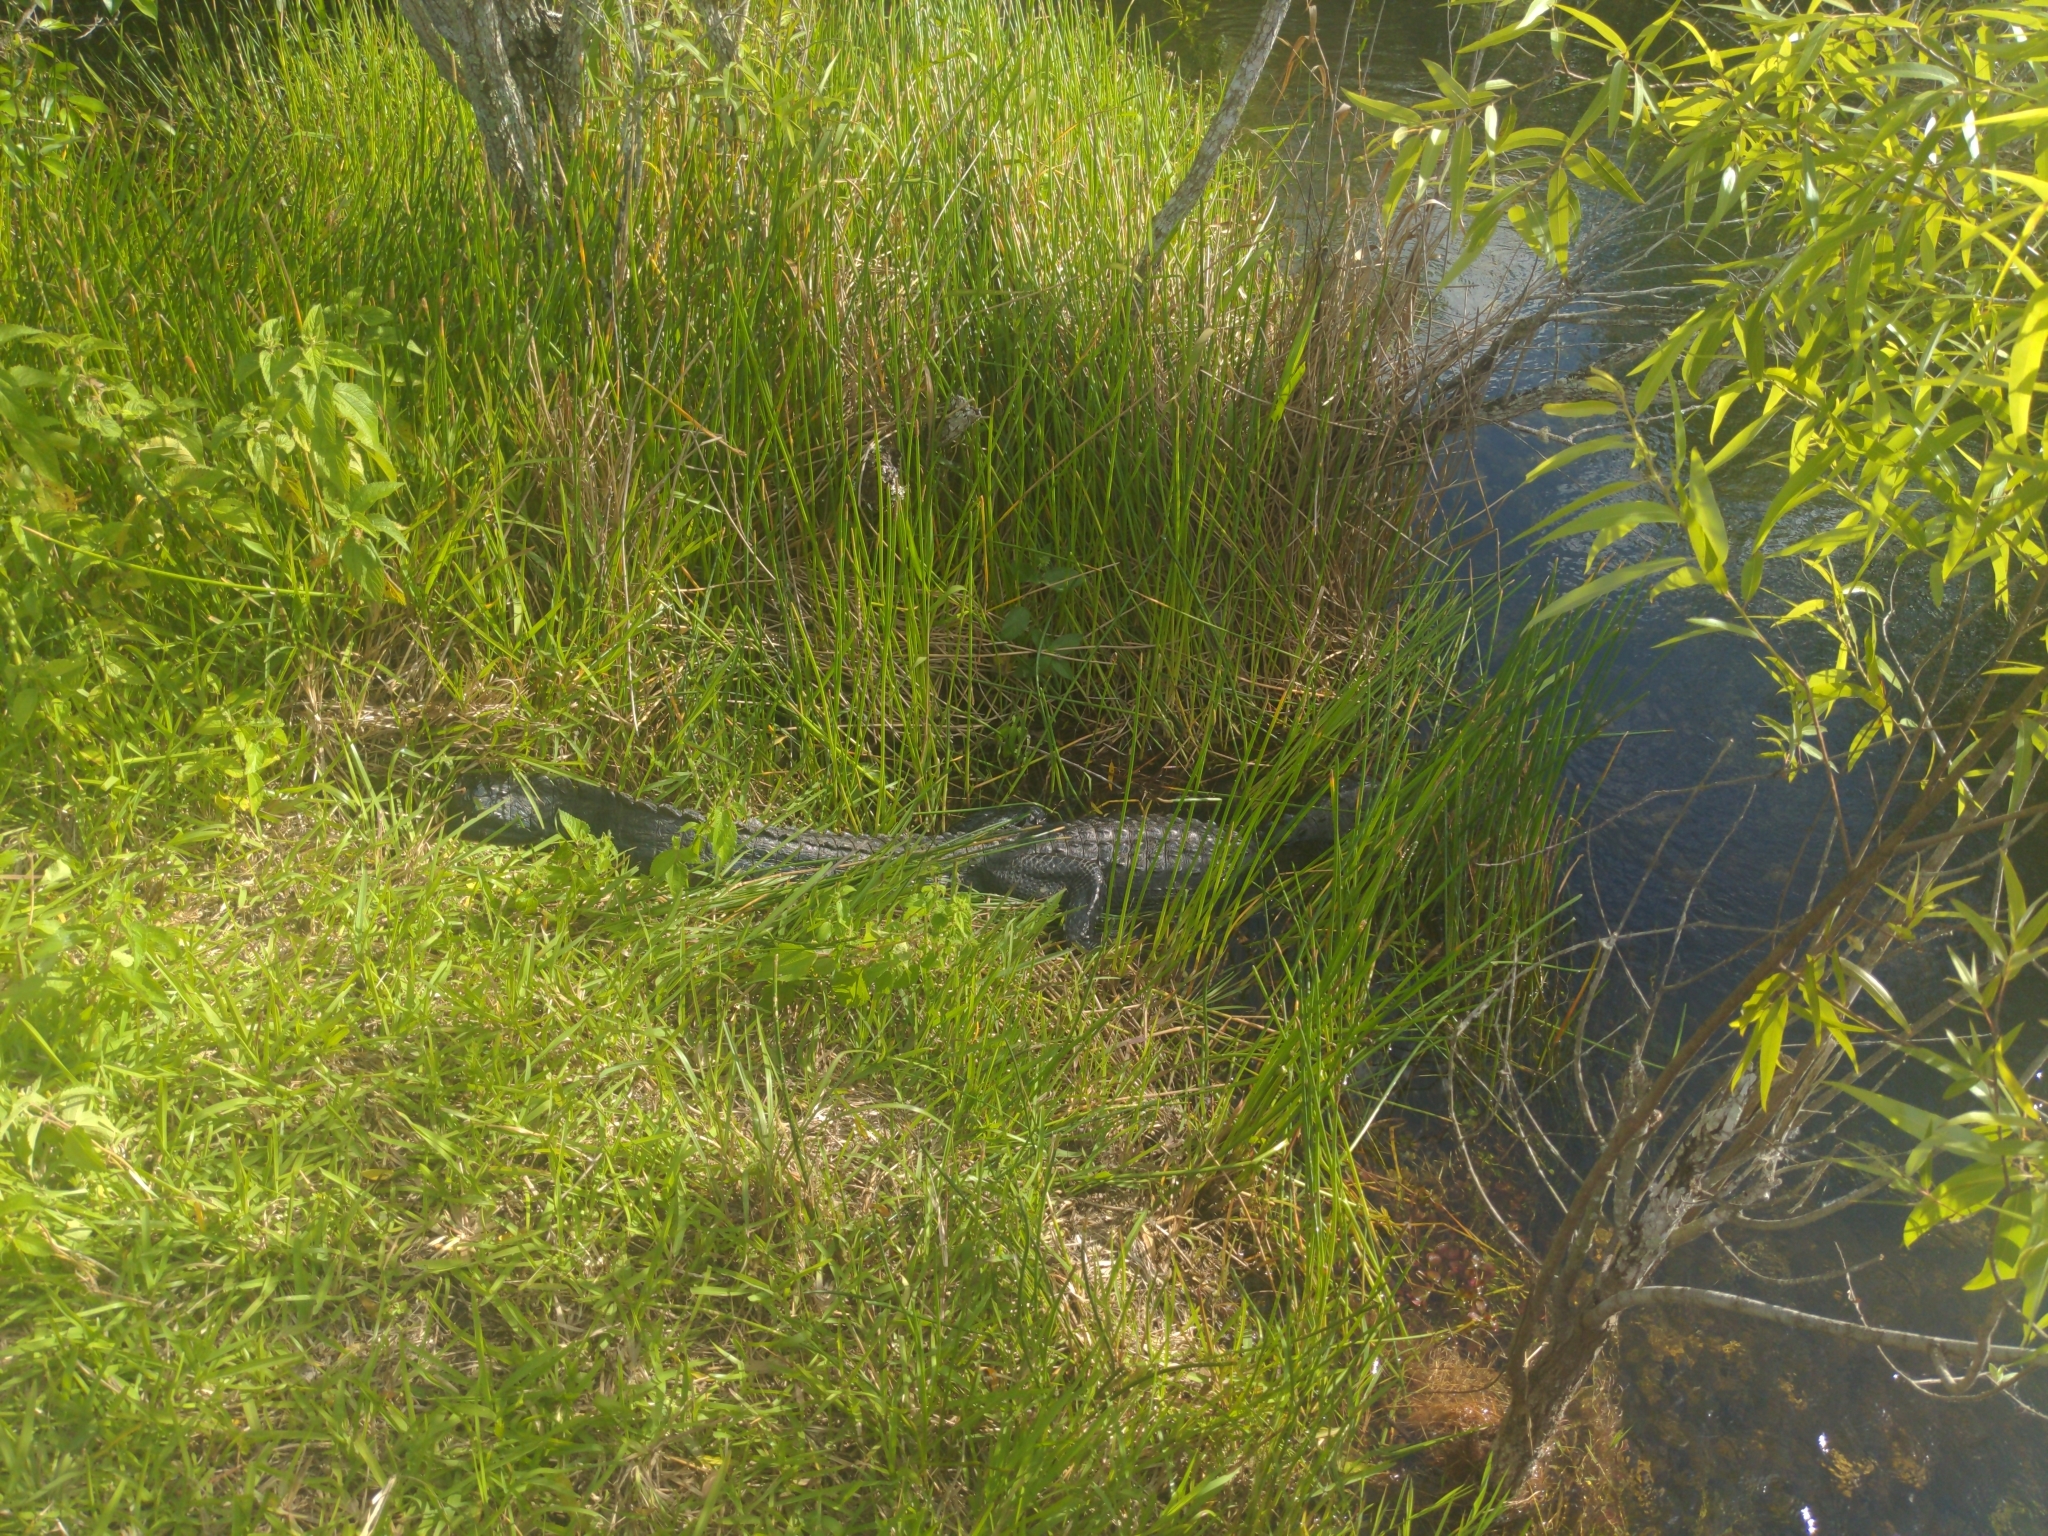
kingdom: Animalia
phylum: Chordata
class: Crocodylia
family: Alligatoridae
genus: Alligator
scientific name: Alligator mississippiensis
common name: American alligator
